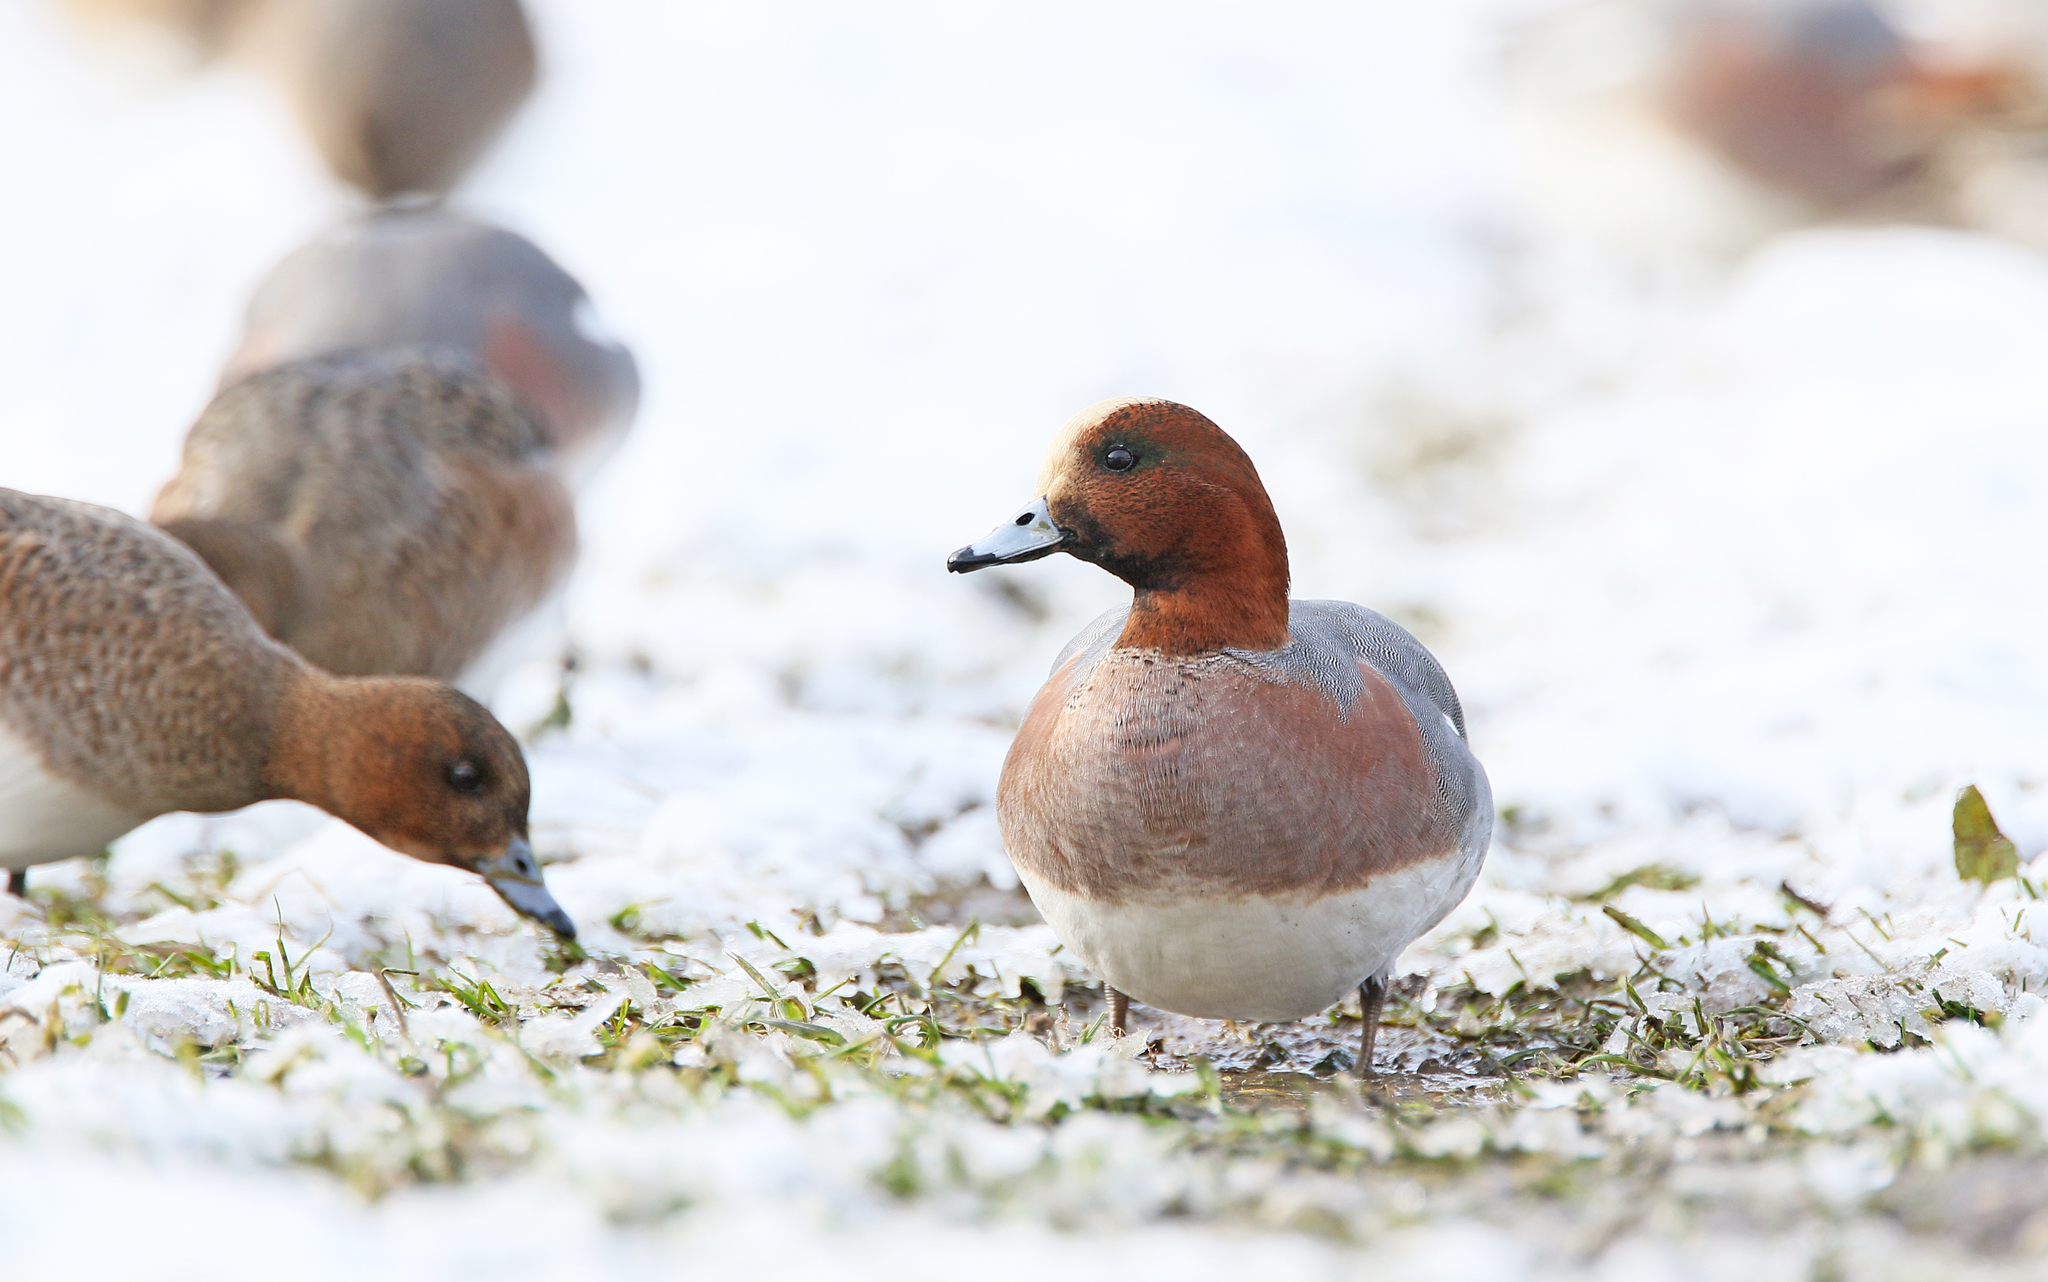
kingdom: Animalia
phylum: Chordata
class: Aves
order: Anseriformes
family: Anatidae
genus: Mareca
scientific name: Mareca penelope
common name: Eurasian wigeon
